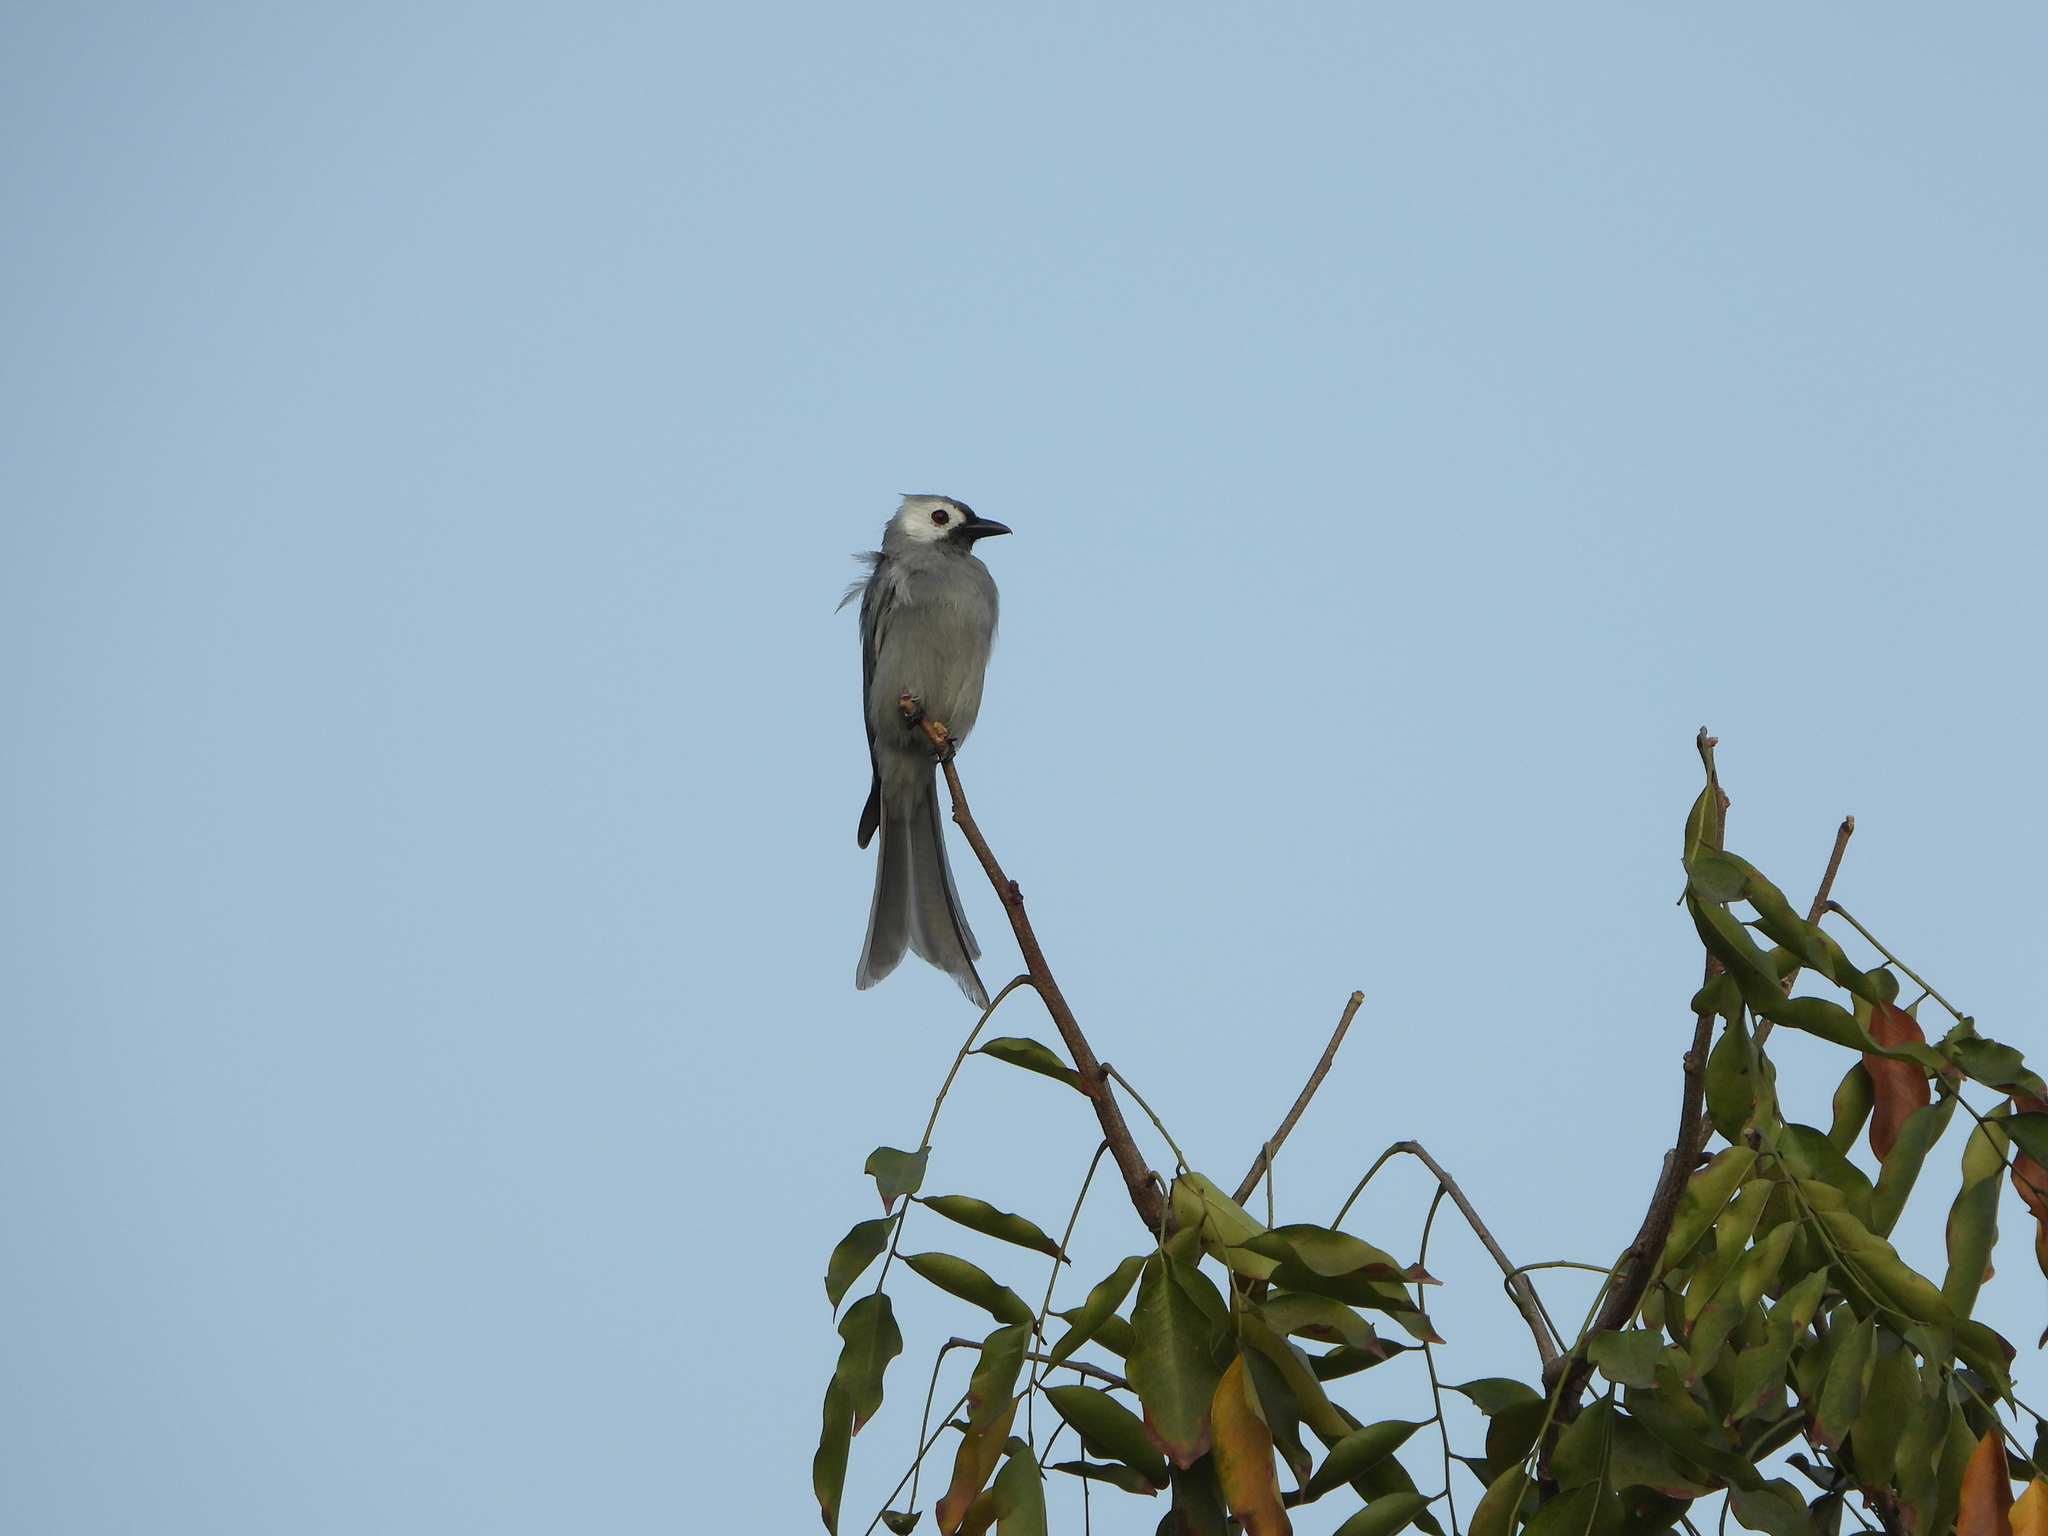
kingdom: Animalia
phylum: Chordata
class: Aves
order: Passeriformes
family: Dicruridae
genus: Dicrurus
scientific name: Dicrurus leucophaeus
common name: Ashy drongo
